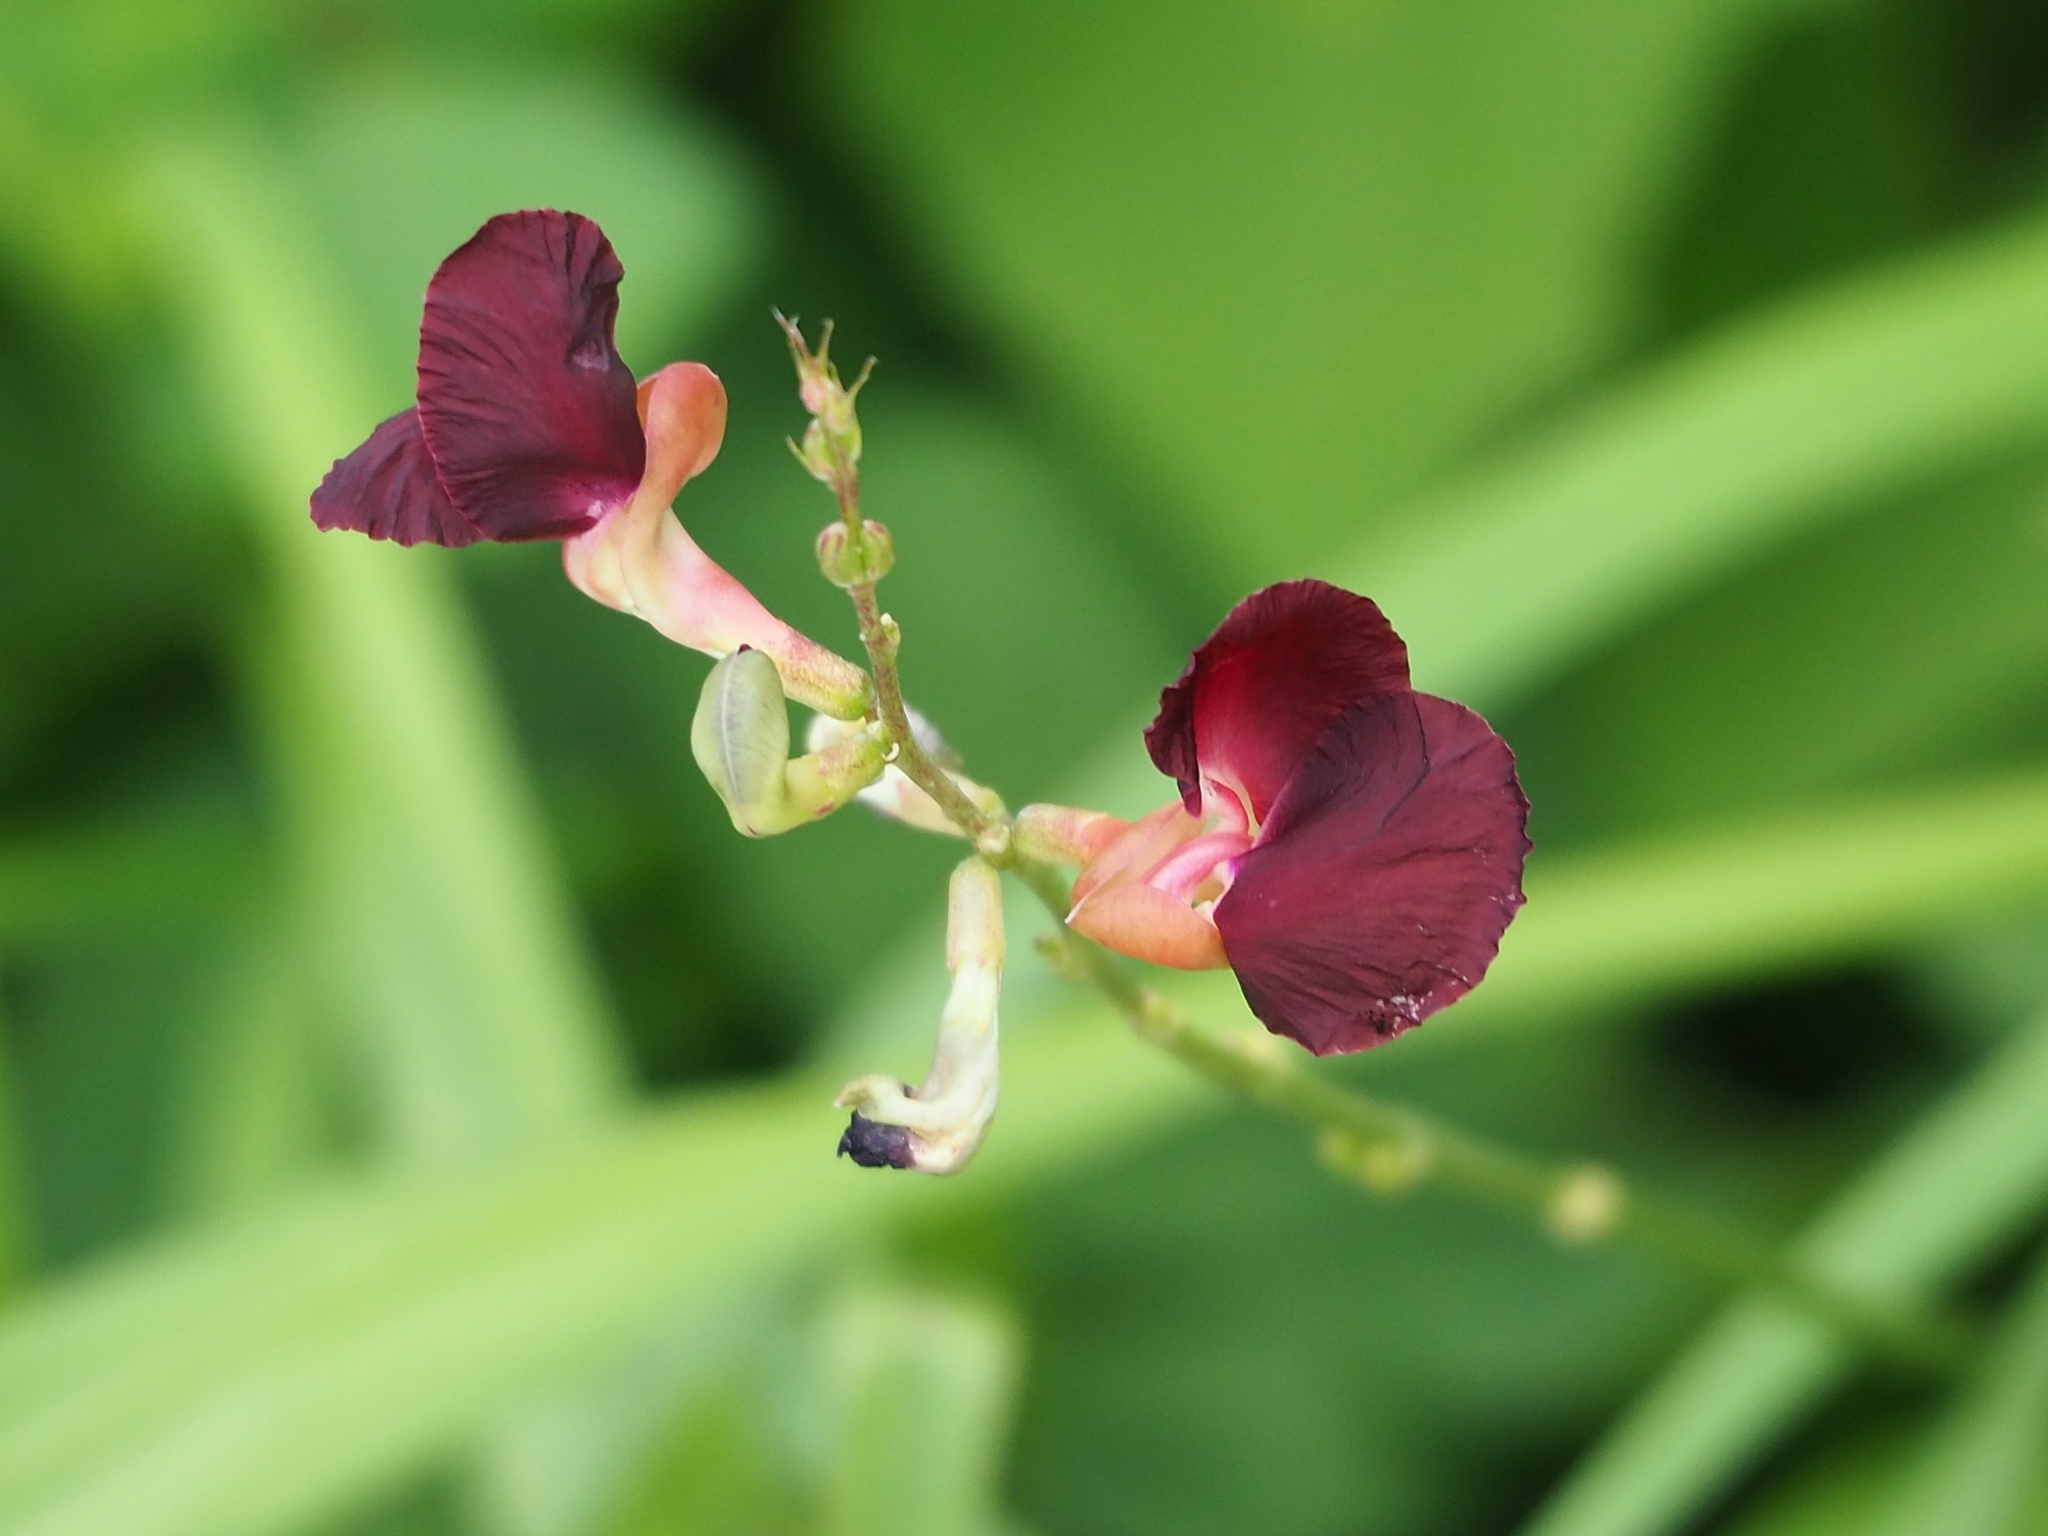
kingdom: Plantae
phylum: Tracheophyta
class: Magnoliopsida
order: Fabales
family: Fabaceae
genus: Macroptilium
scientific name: Macroptilium lathyroides
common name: Wild bushbean
